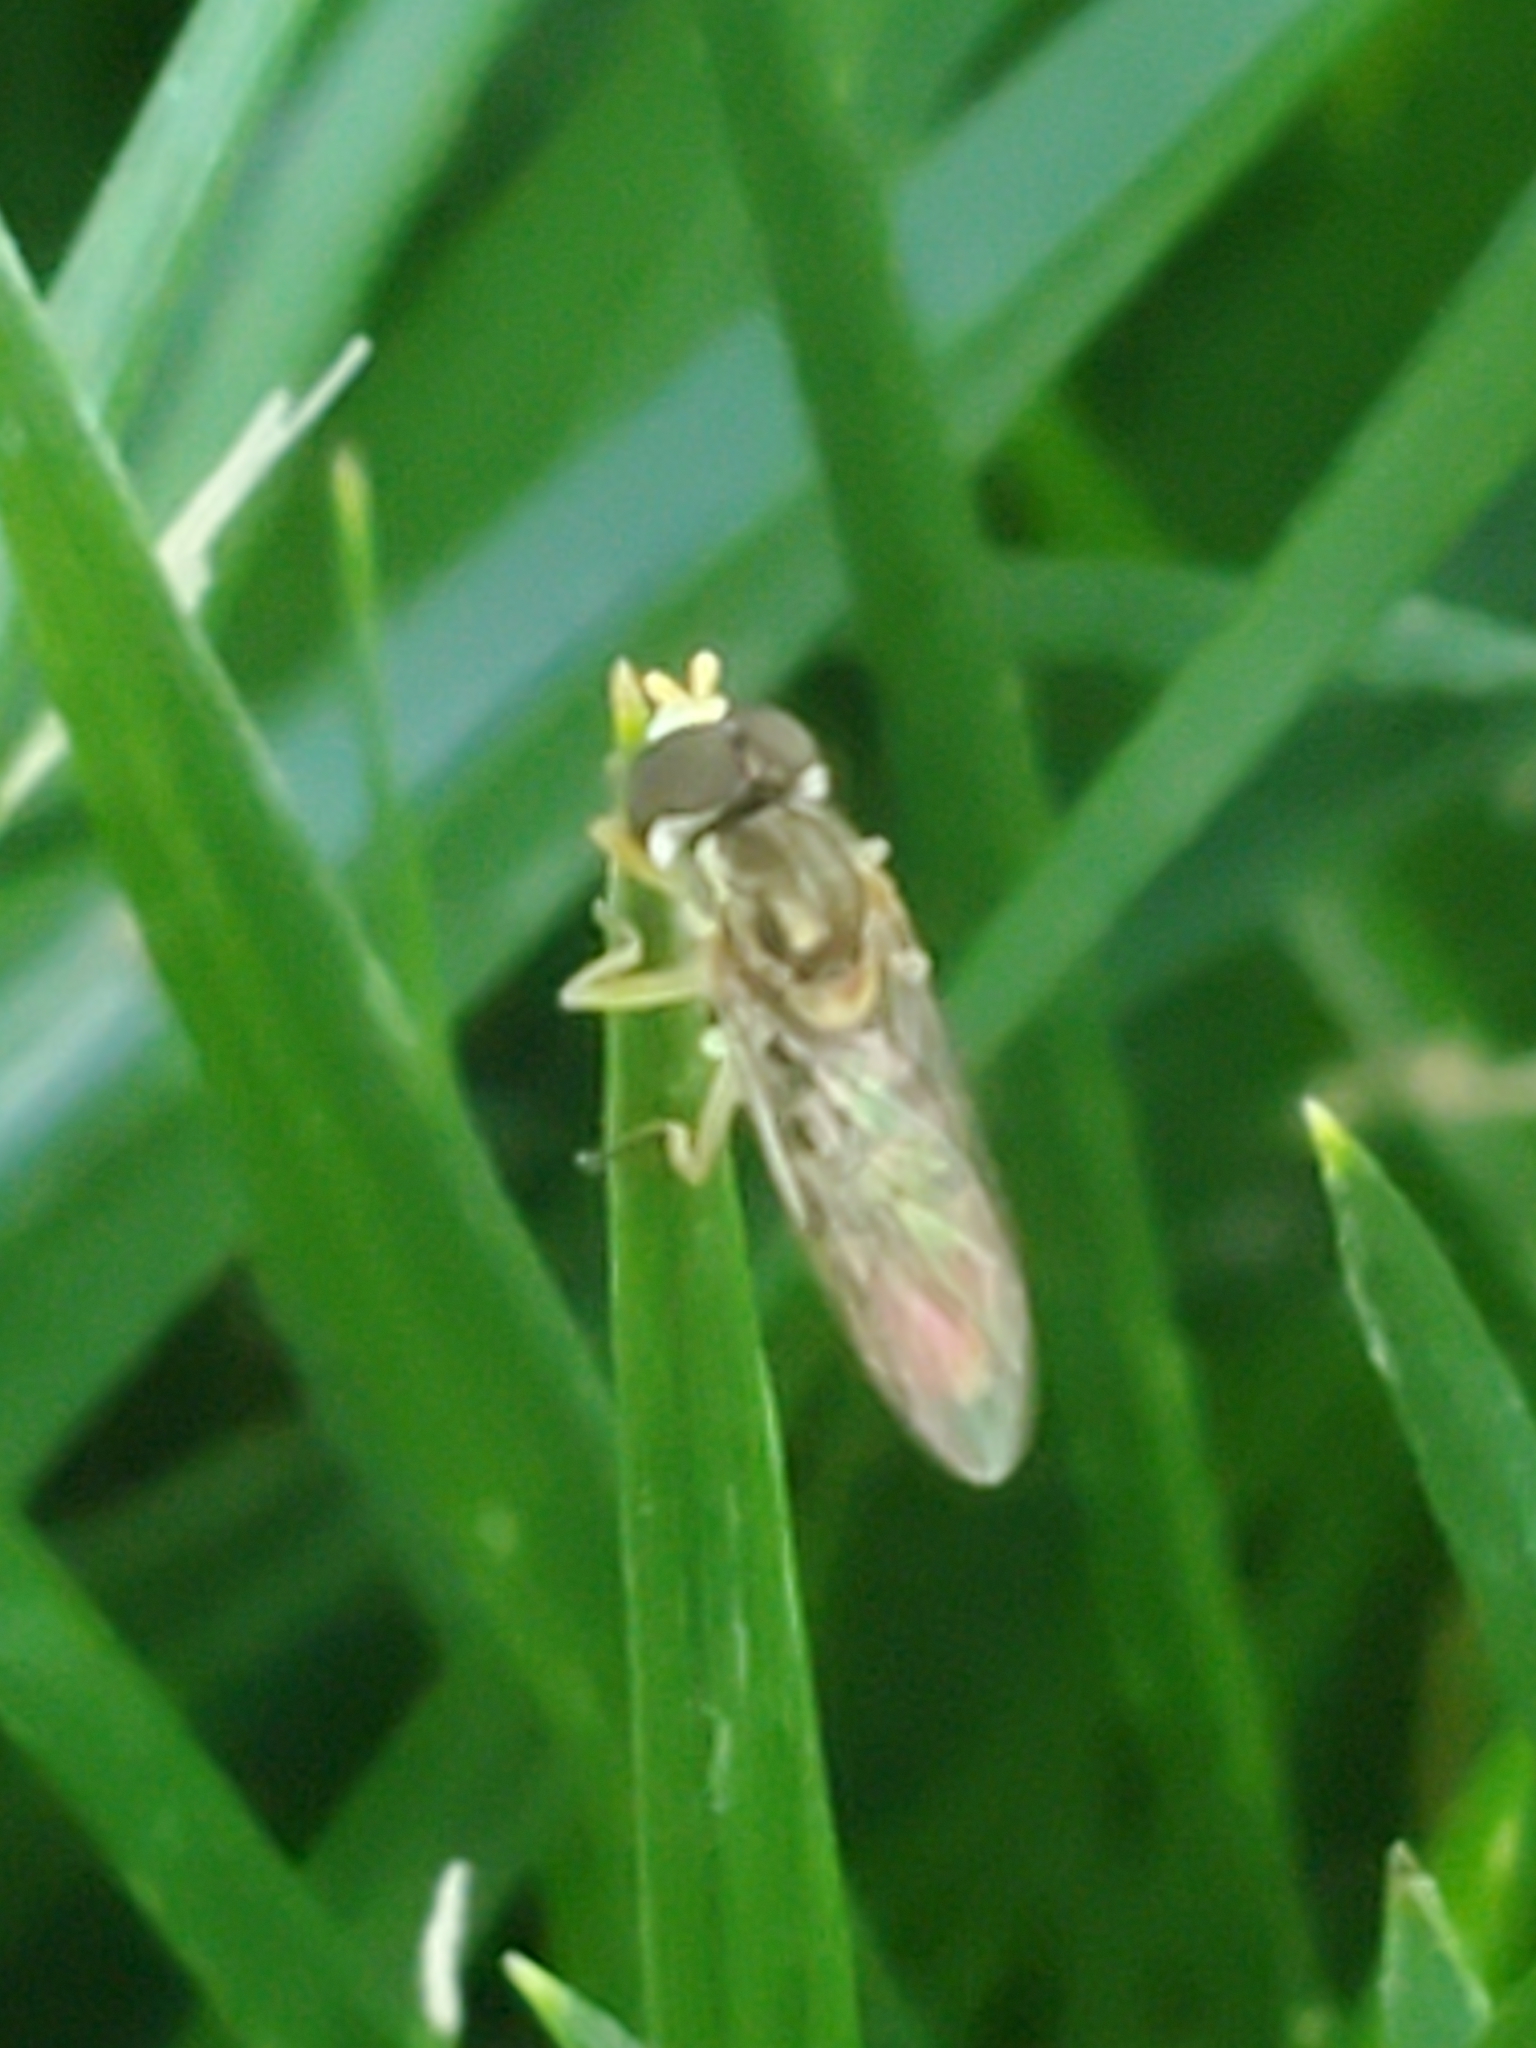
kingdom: Animalia
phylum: Arthropoda
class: Insecta
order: Diptera
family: Syrphidae
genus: Toxomerus
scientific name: Toxomerus marginatus
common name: Syrphid fly
